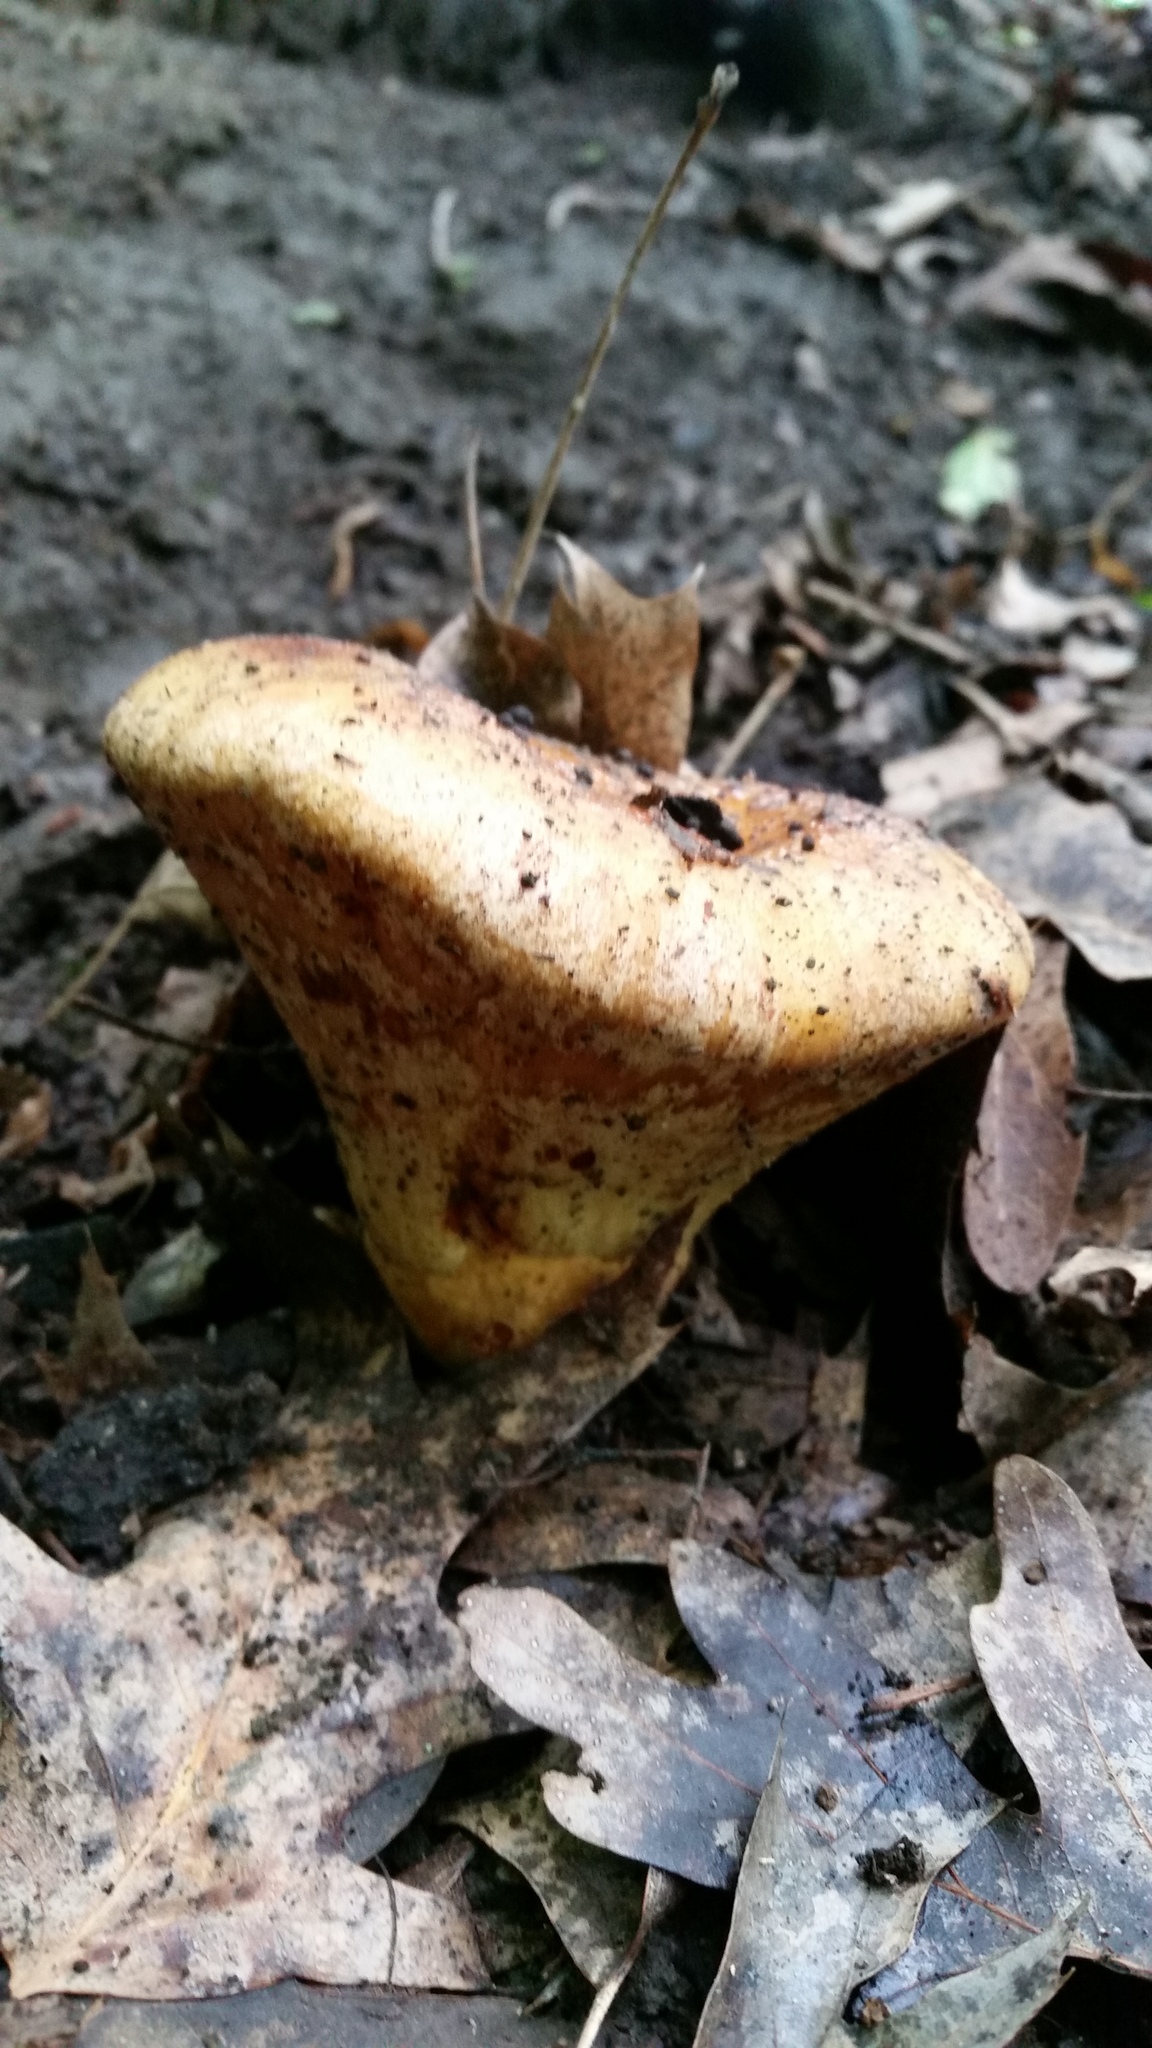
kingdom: Fungi
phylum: Basidiomycota
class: Agaricomycetes
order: Boletales
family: Paxillaceae
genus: Paragyrodon
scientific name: Paragyrodon sphaerosporus
